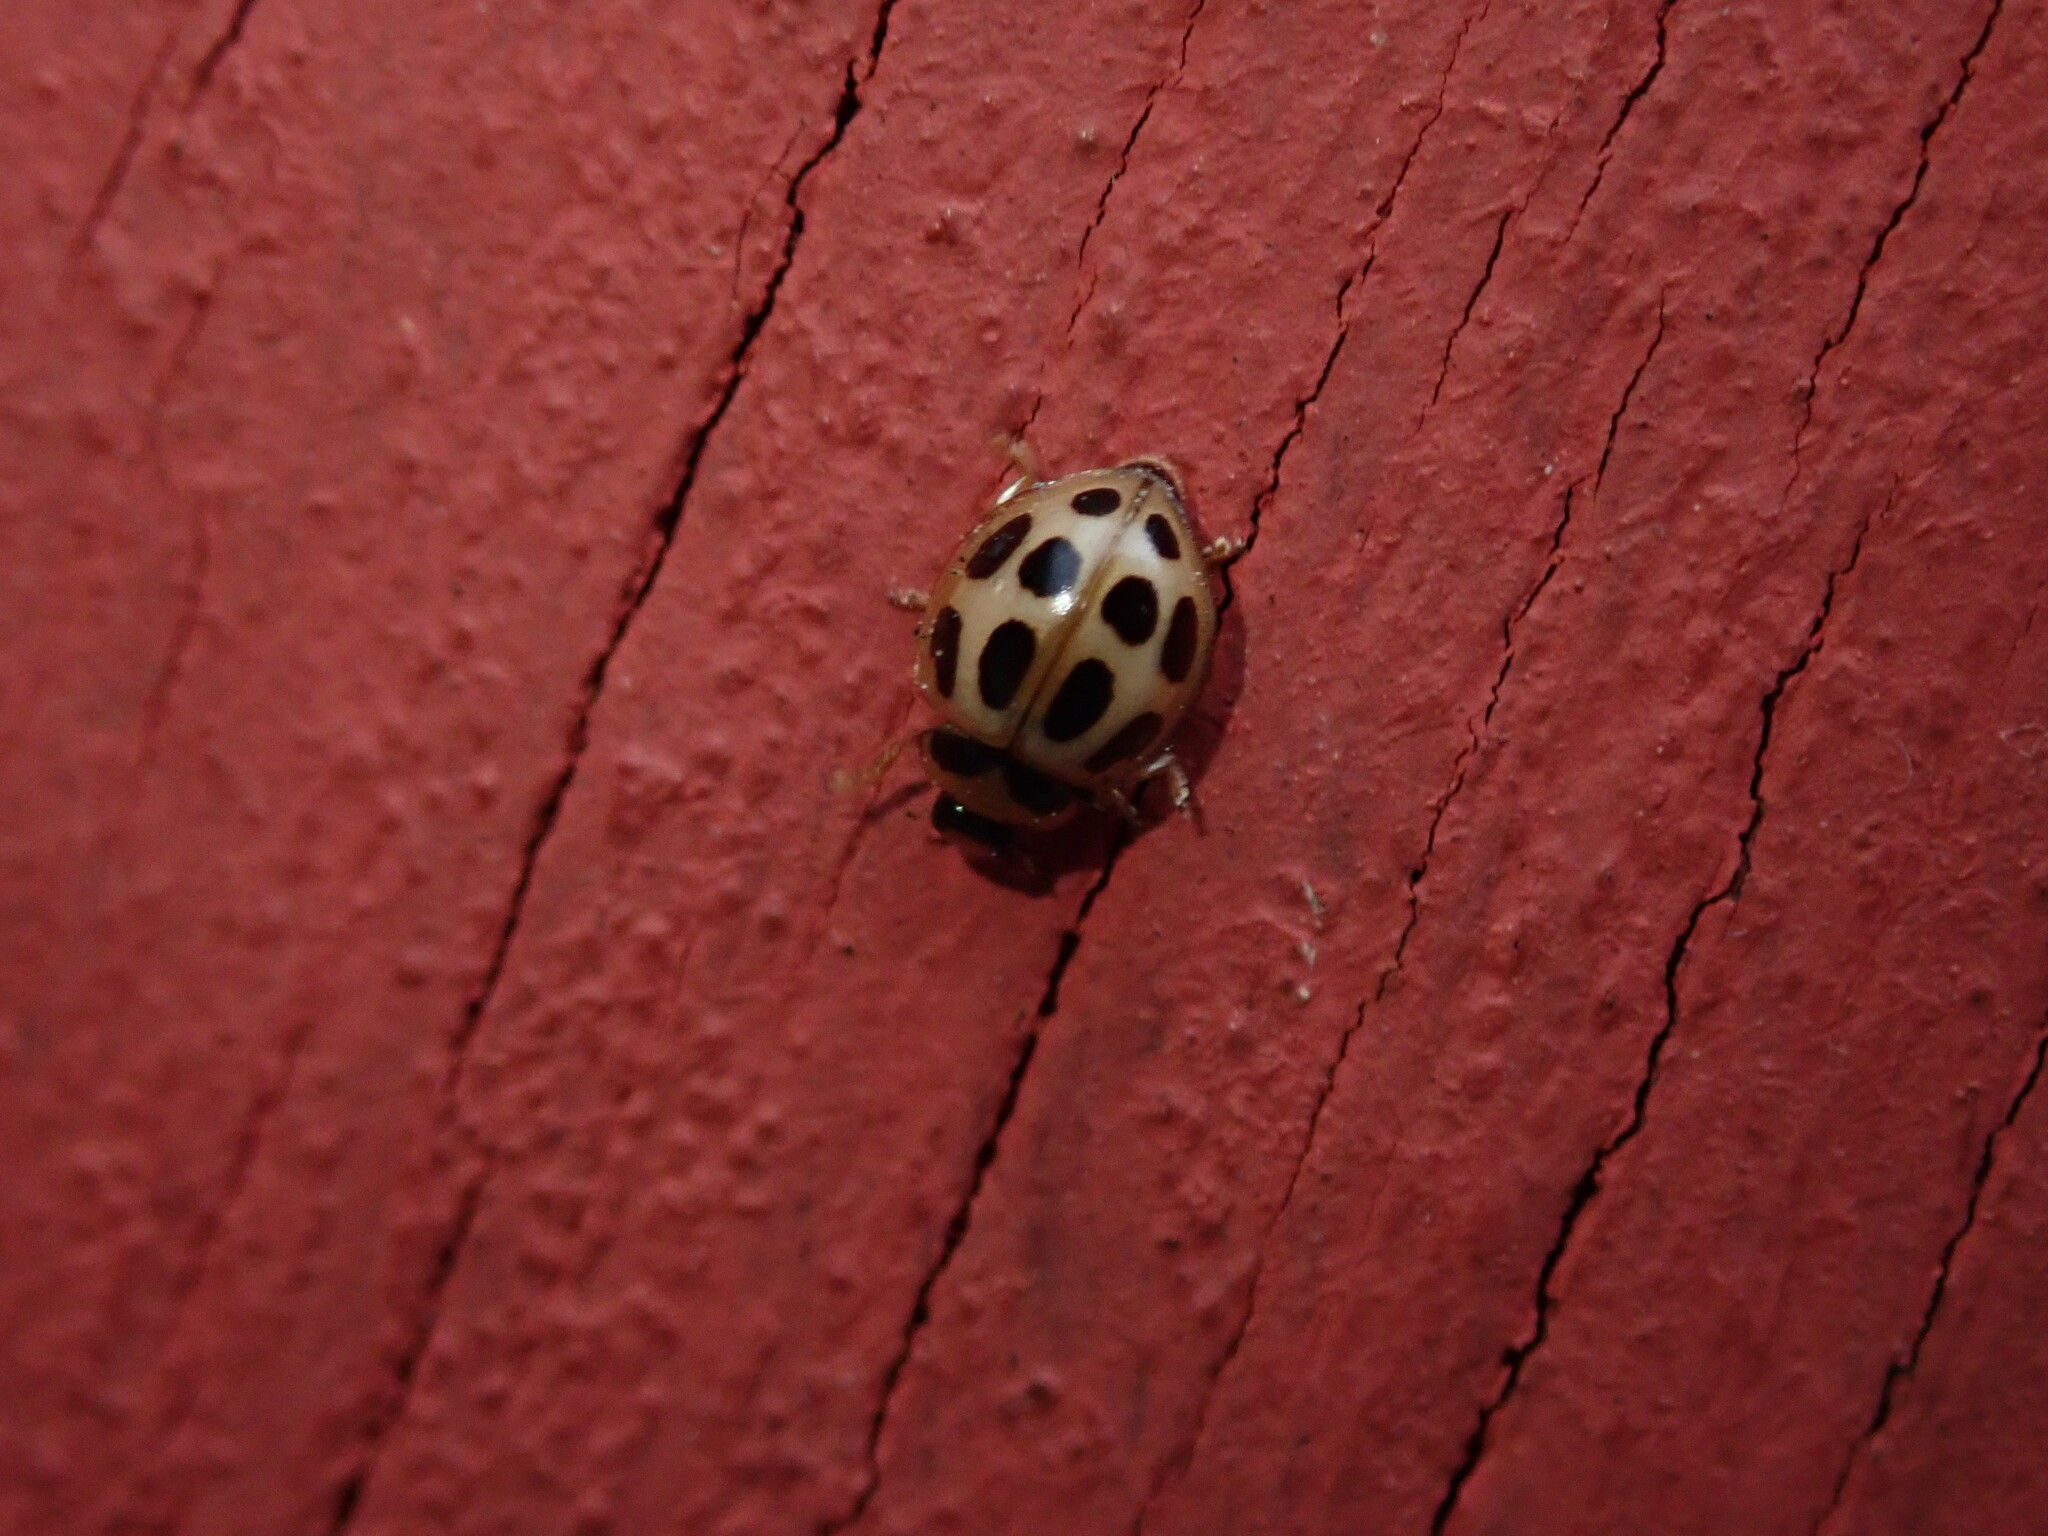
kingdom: Animalia
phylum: Arthropoda
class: Insecta
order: Coleoptera
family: Coccinellidae
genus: Zagreus
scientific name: Zagreus
